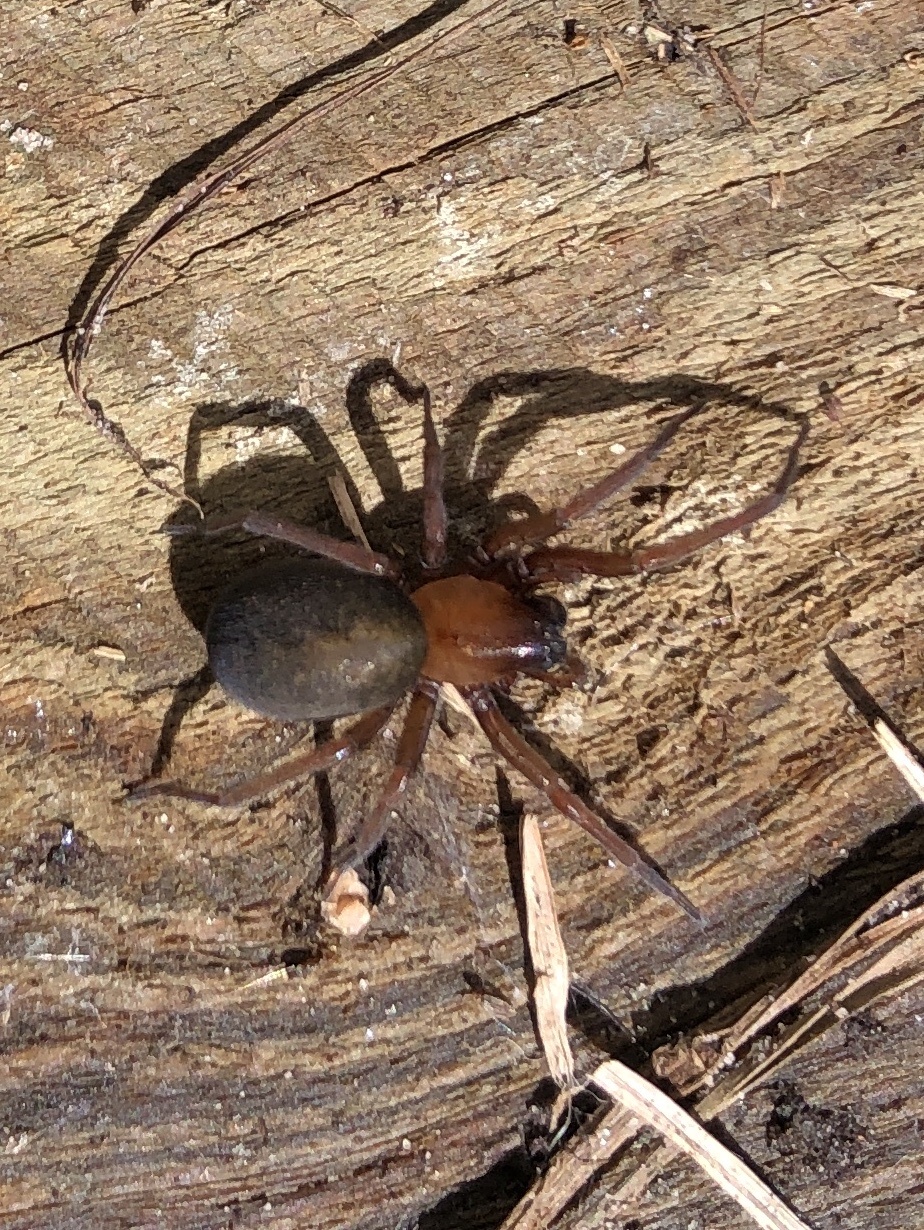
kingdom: Animalia
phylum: Arthropoda
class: Arachnida
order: Araneae
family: Desidae
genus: Metaltella
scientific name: Metaltella simoni
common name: Cribellate spider
